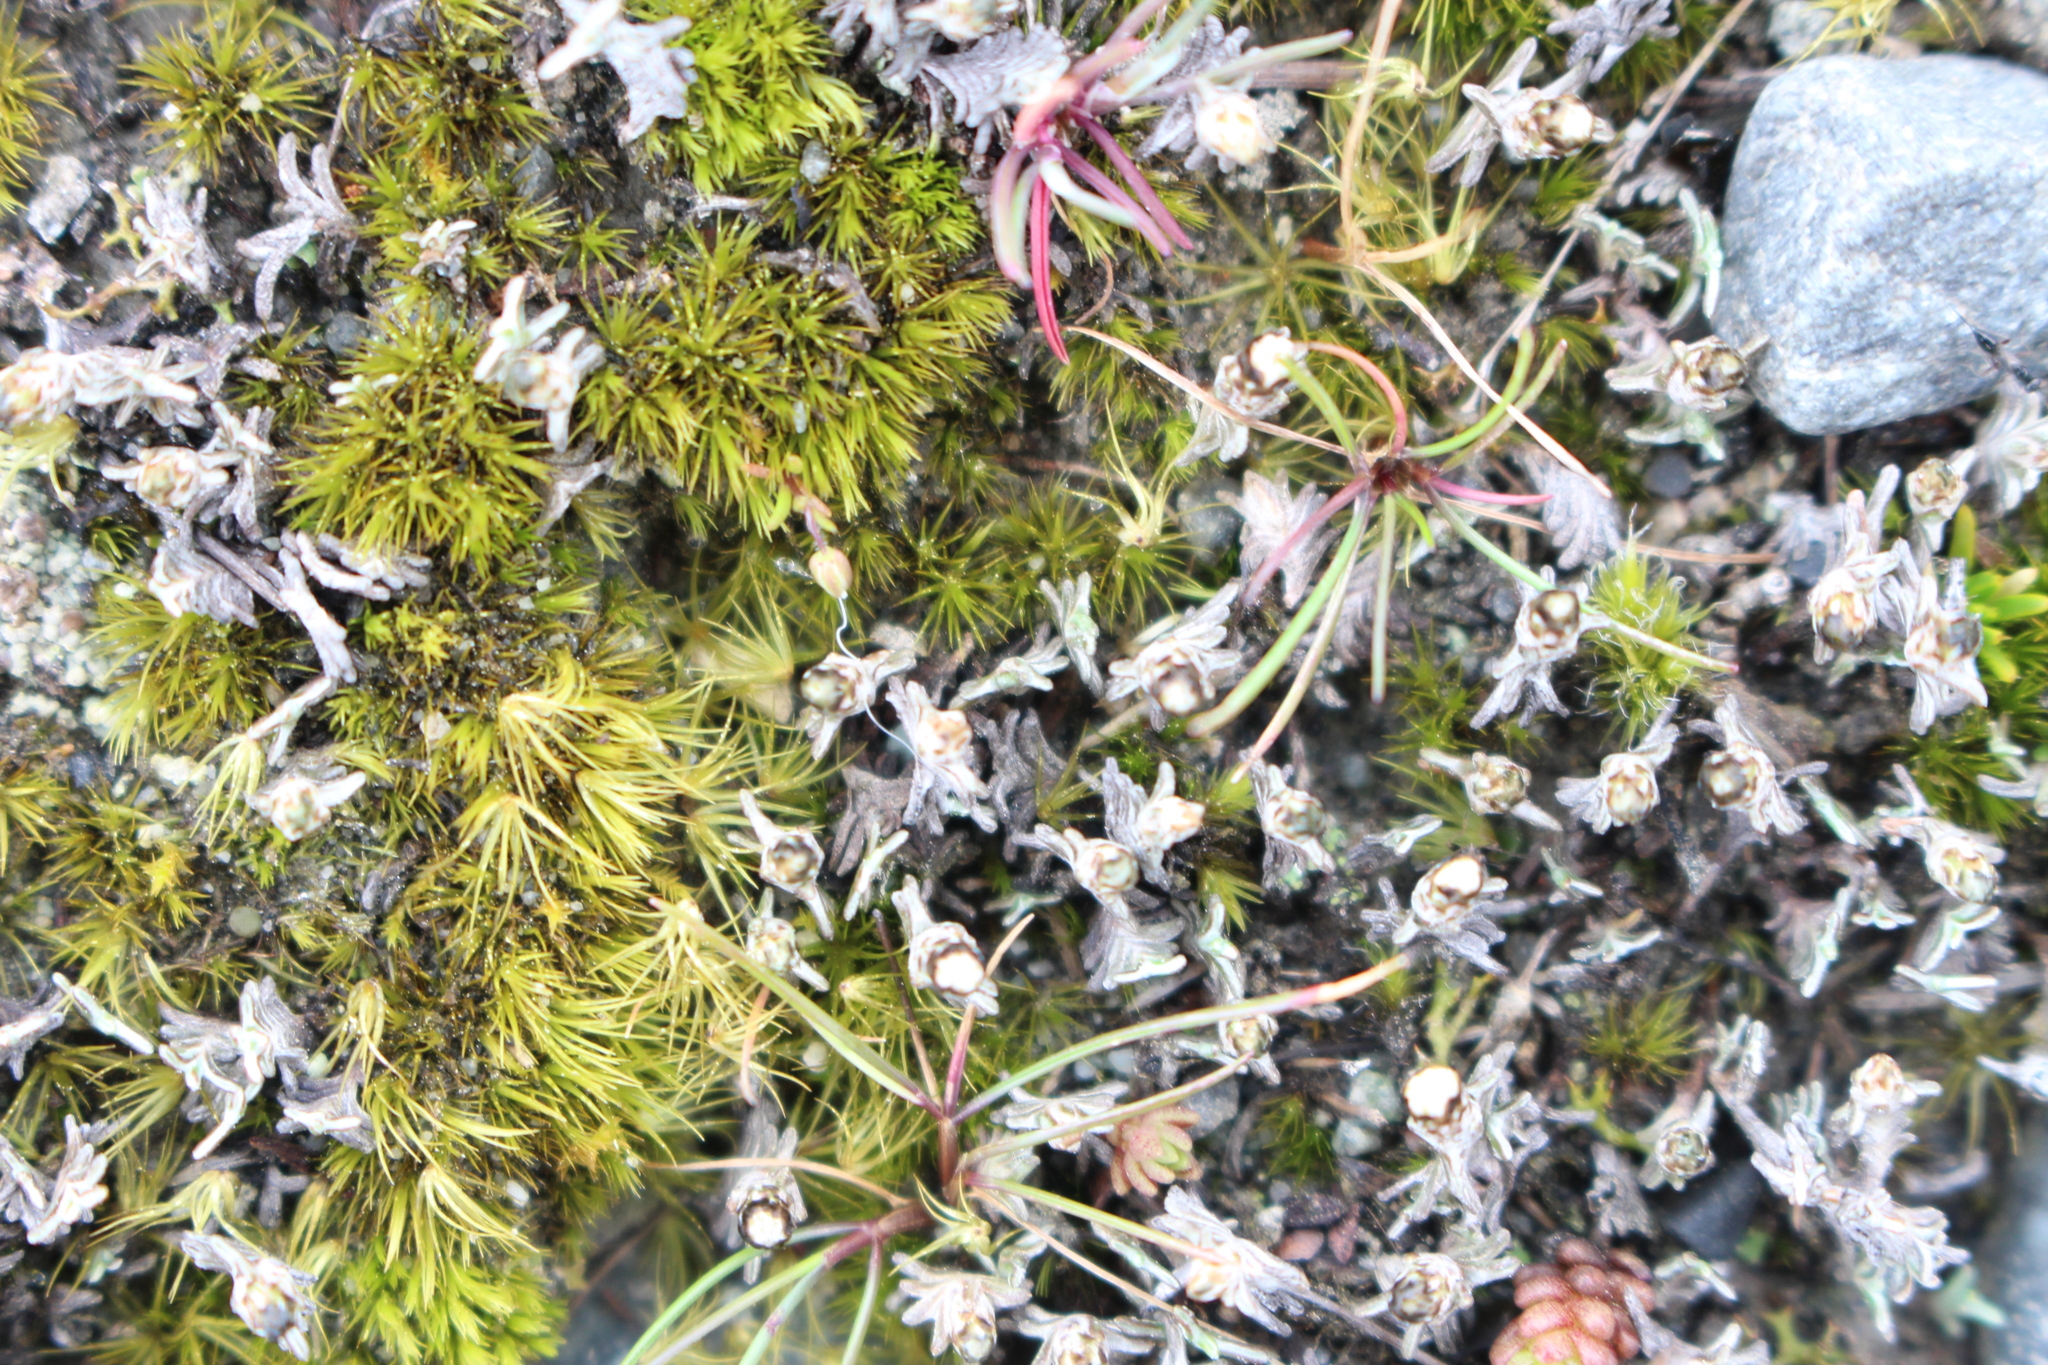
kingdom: Plantae
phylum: Tracheophyta
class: Magnoliopsida
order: Asterales
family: Asteraceae
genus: Raoulia
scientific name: Raoulia monroi
